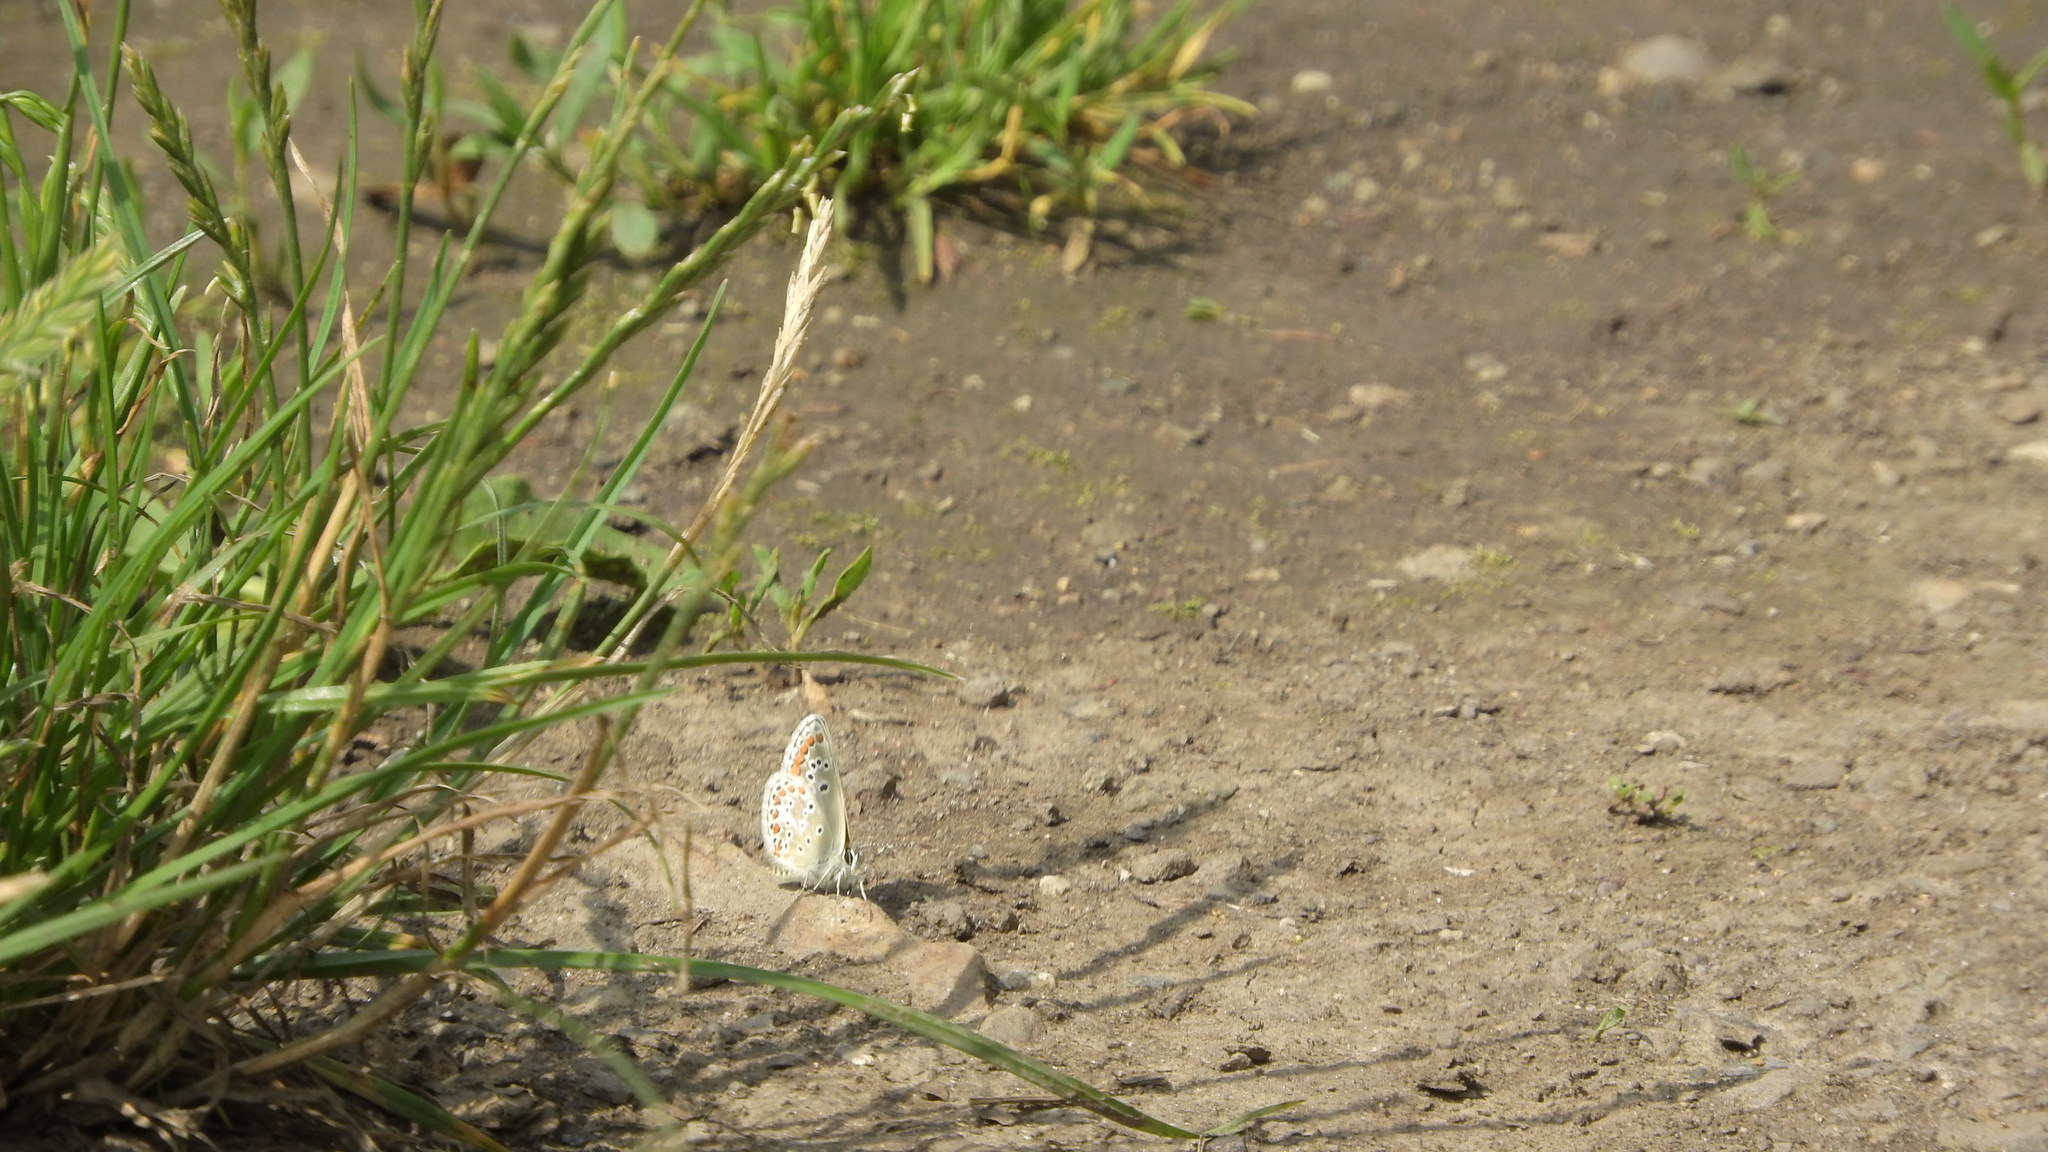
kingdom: Animalia
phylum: Arthropoda
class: Insecta
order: Lepidoptera
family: Lycaenidae
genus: Aricia
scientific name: Aricia agestis
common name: Brown argus
